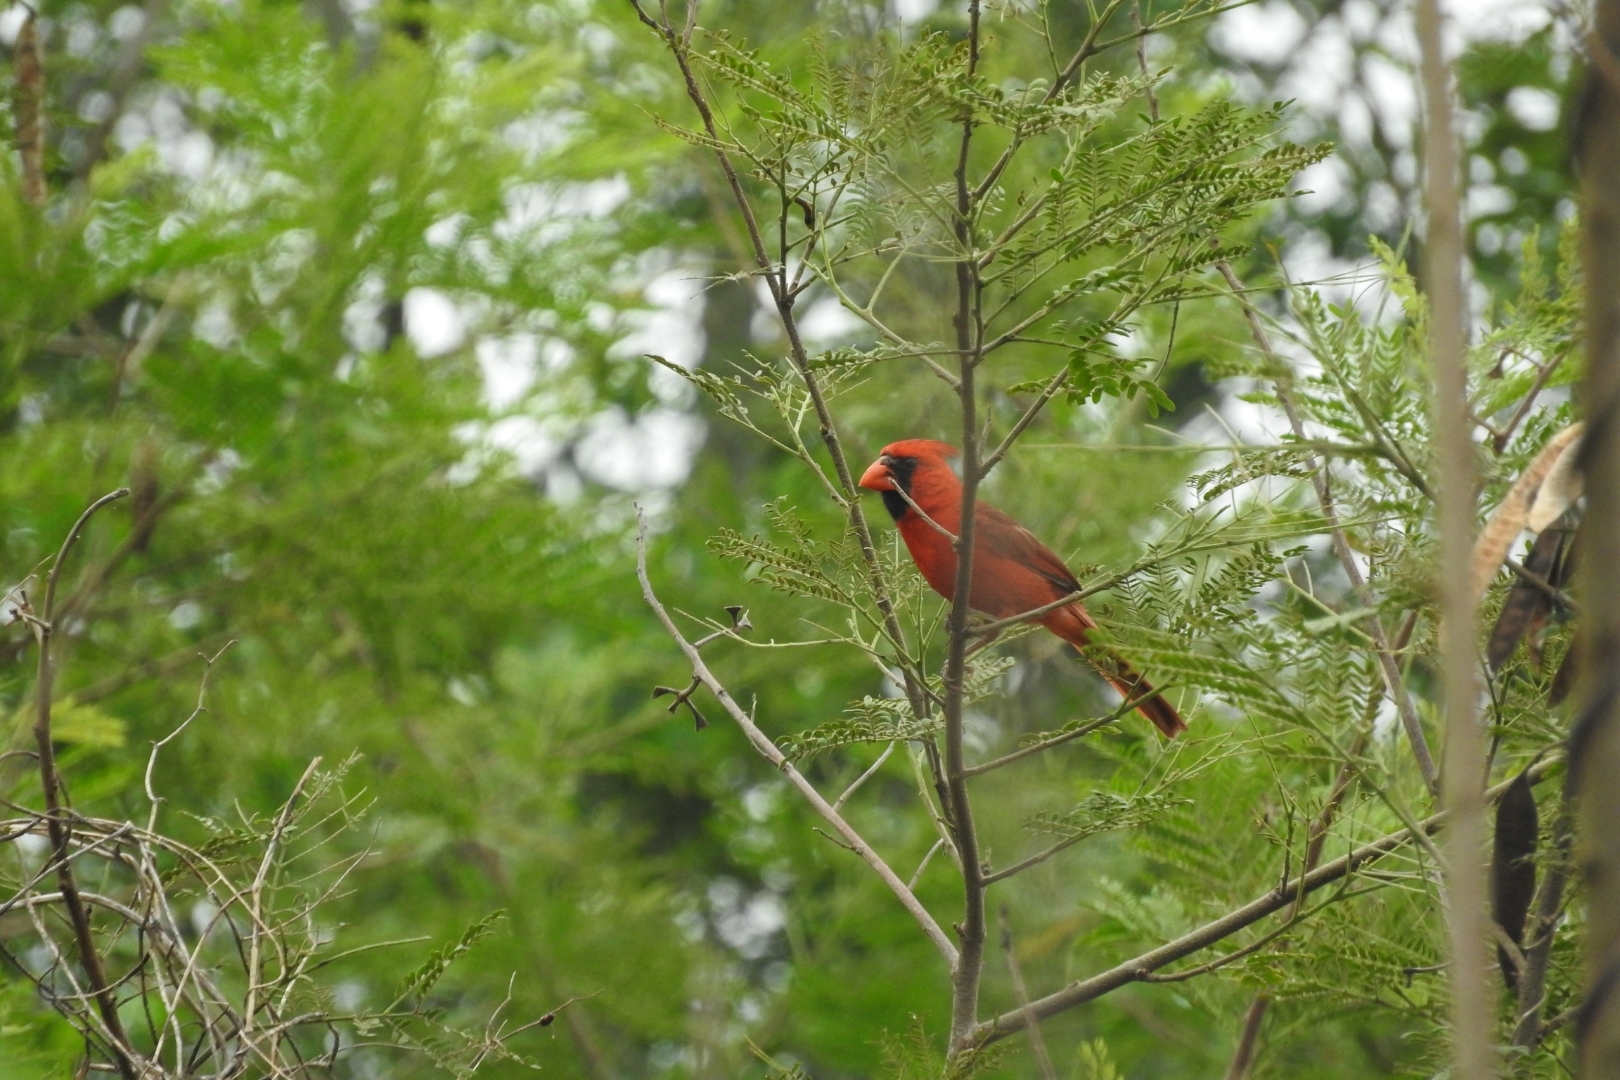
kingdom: Animalia
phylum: Chordata
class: Aves
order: Passeriformes
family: Cardinalidae
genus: Cardinalis
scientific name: Cardinalis cardinalis
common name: Northern cardinal
